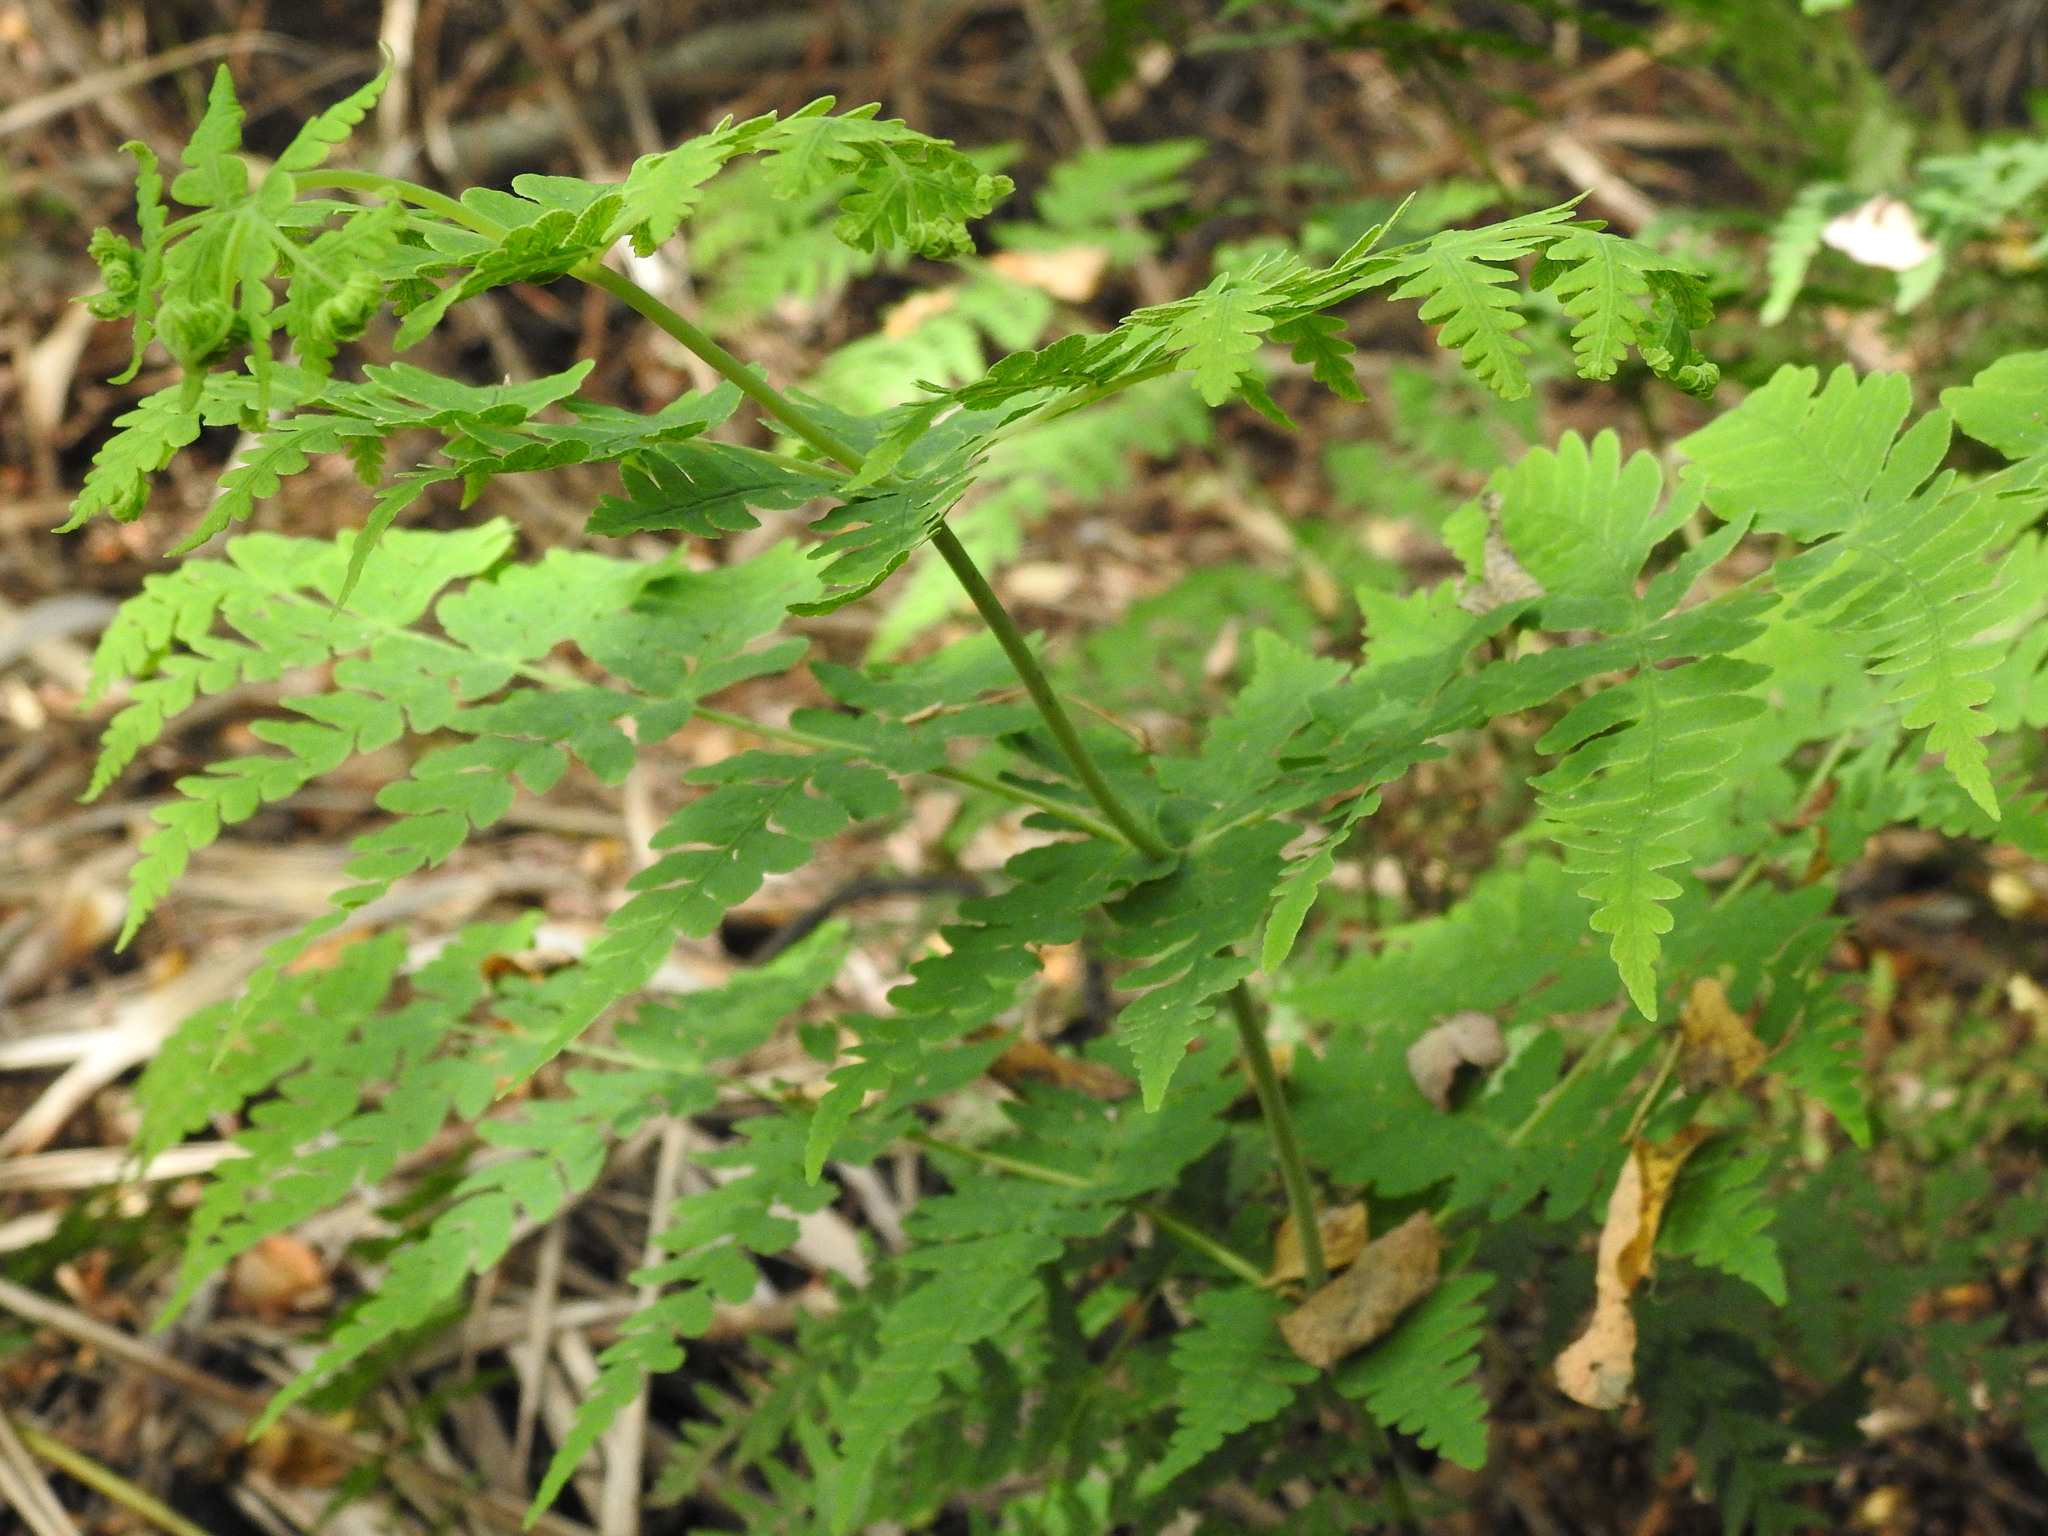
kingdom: Plantae
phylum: Tracheophyta
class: Polypodiopsida
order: Polypodiales
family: Dennstaedtiaceae
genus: Histiopteris
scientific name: Histiopteris incisa
